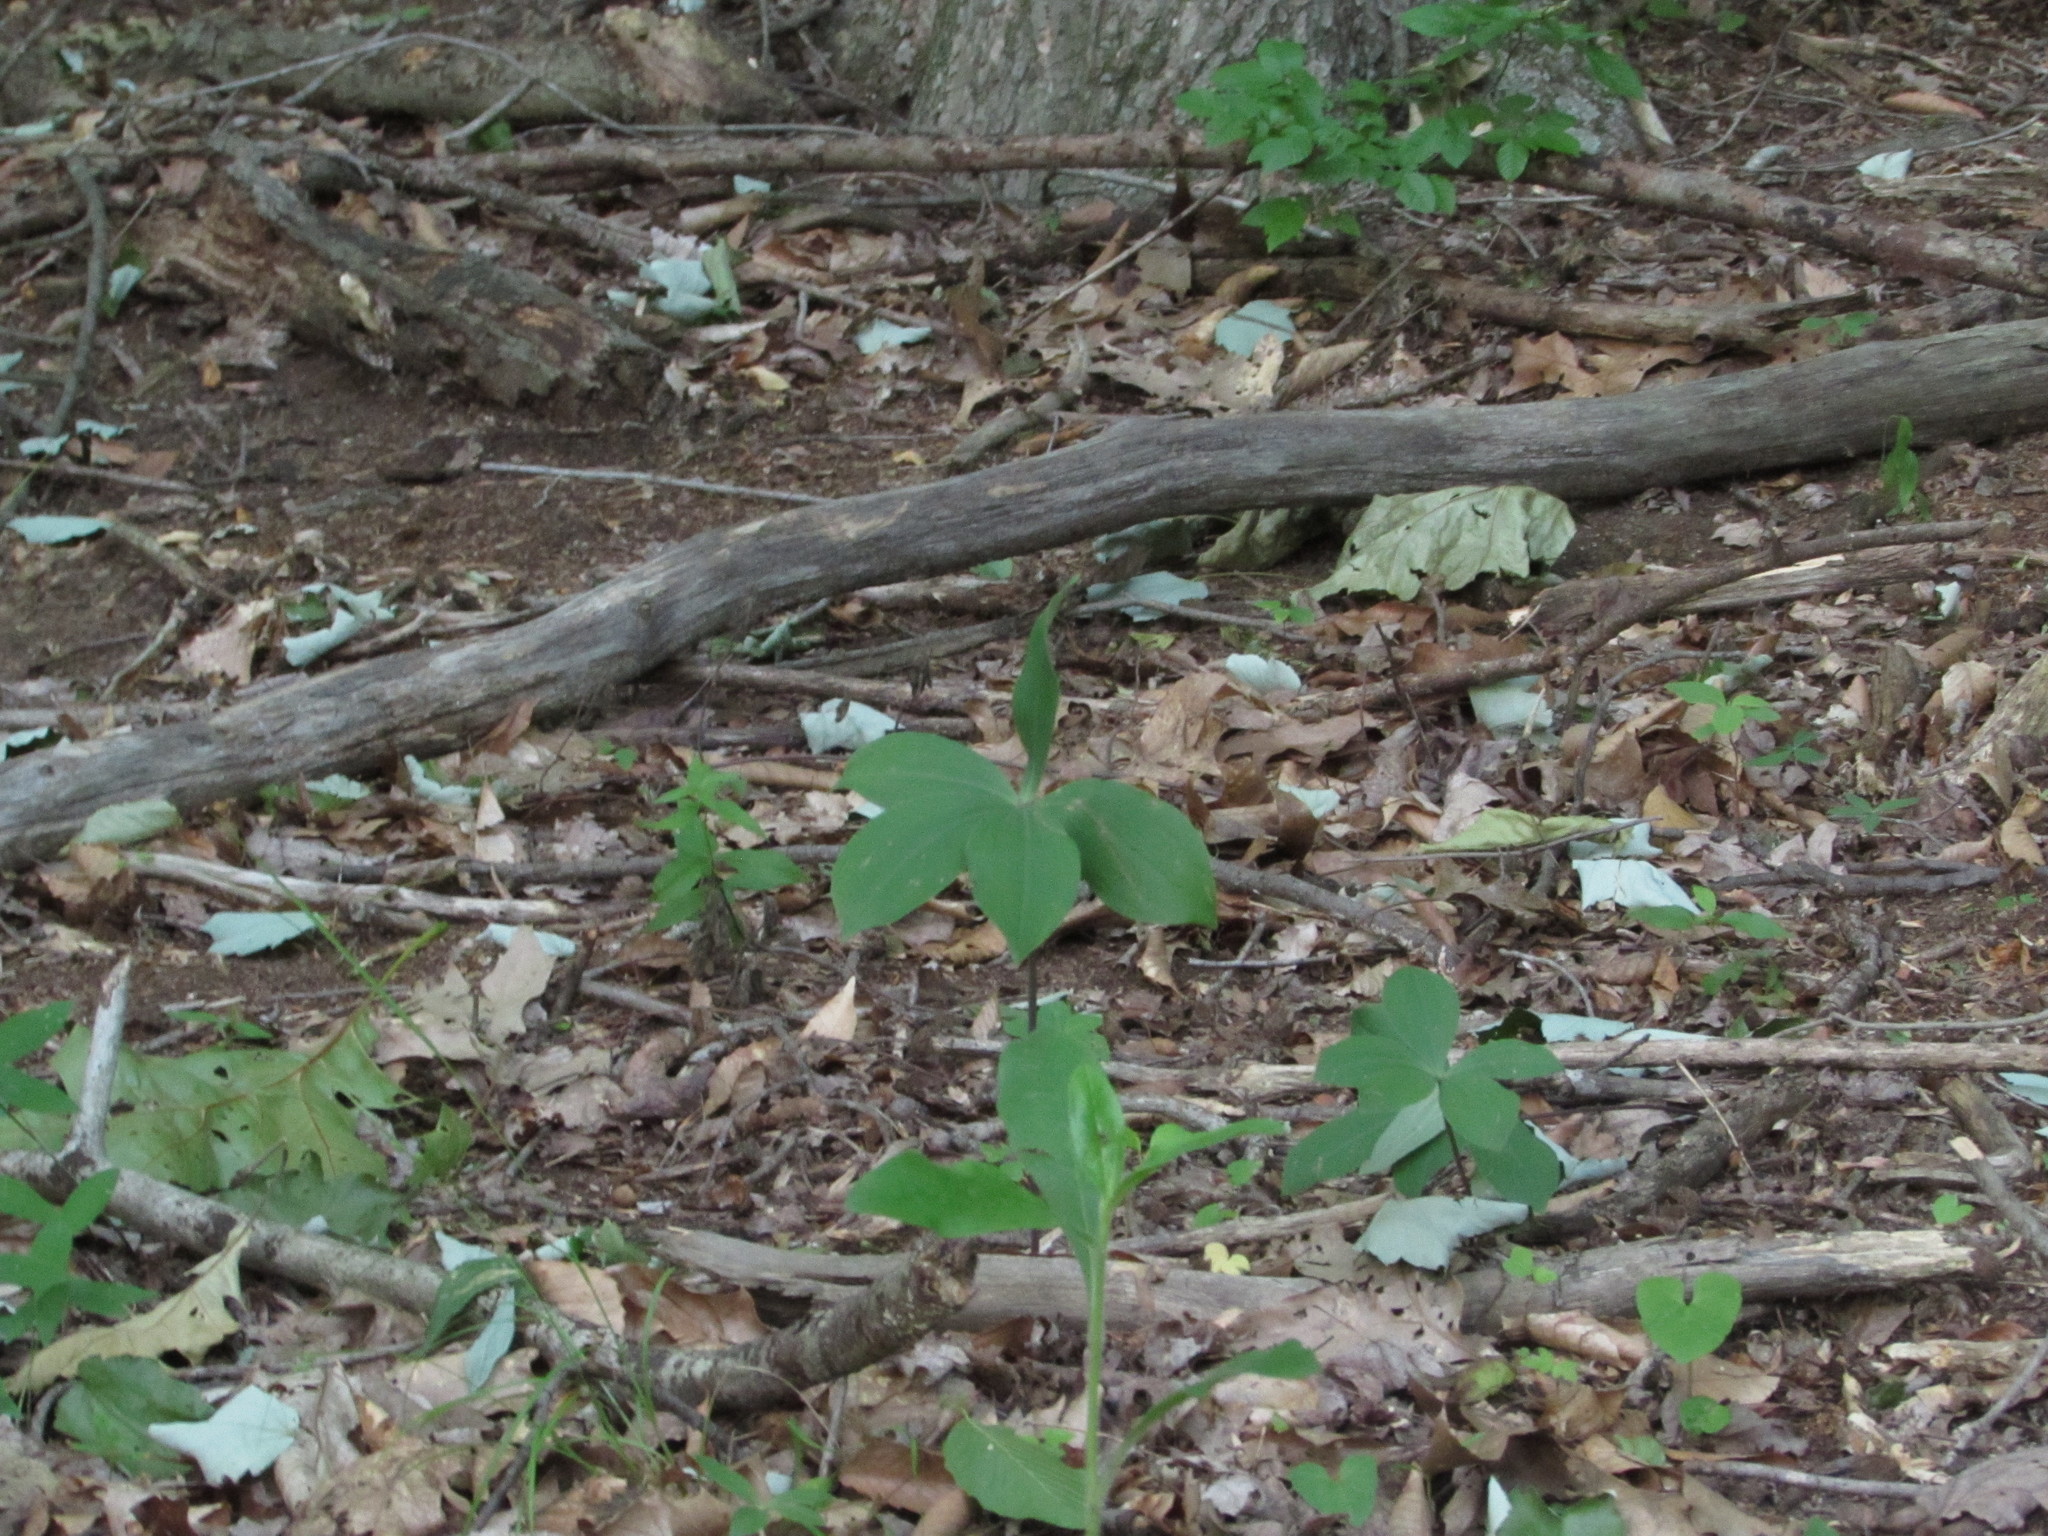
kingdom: Plantae
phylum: Tracheophyta
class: Liliopsida
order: Asparagales
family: Orchidaceae
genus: Isotria
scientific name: Isotria verticillata
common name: Large whorled pogonia
